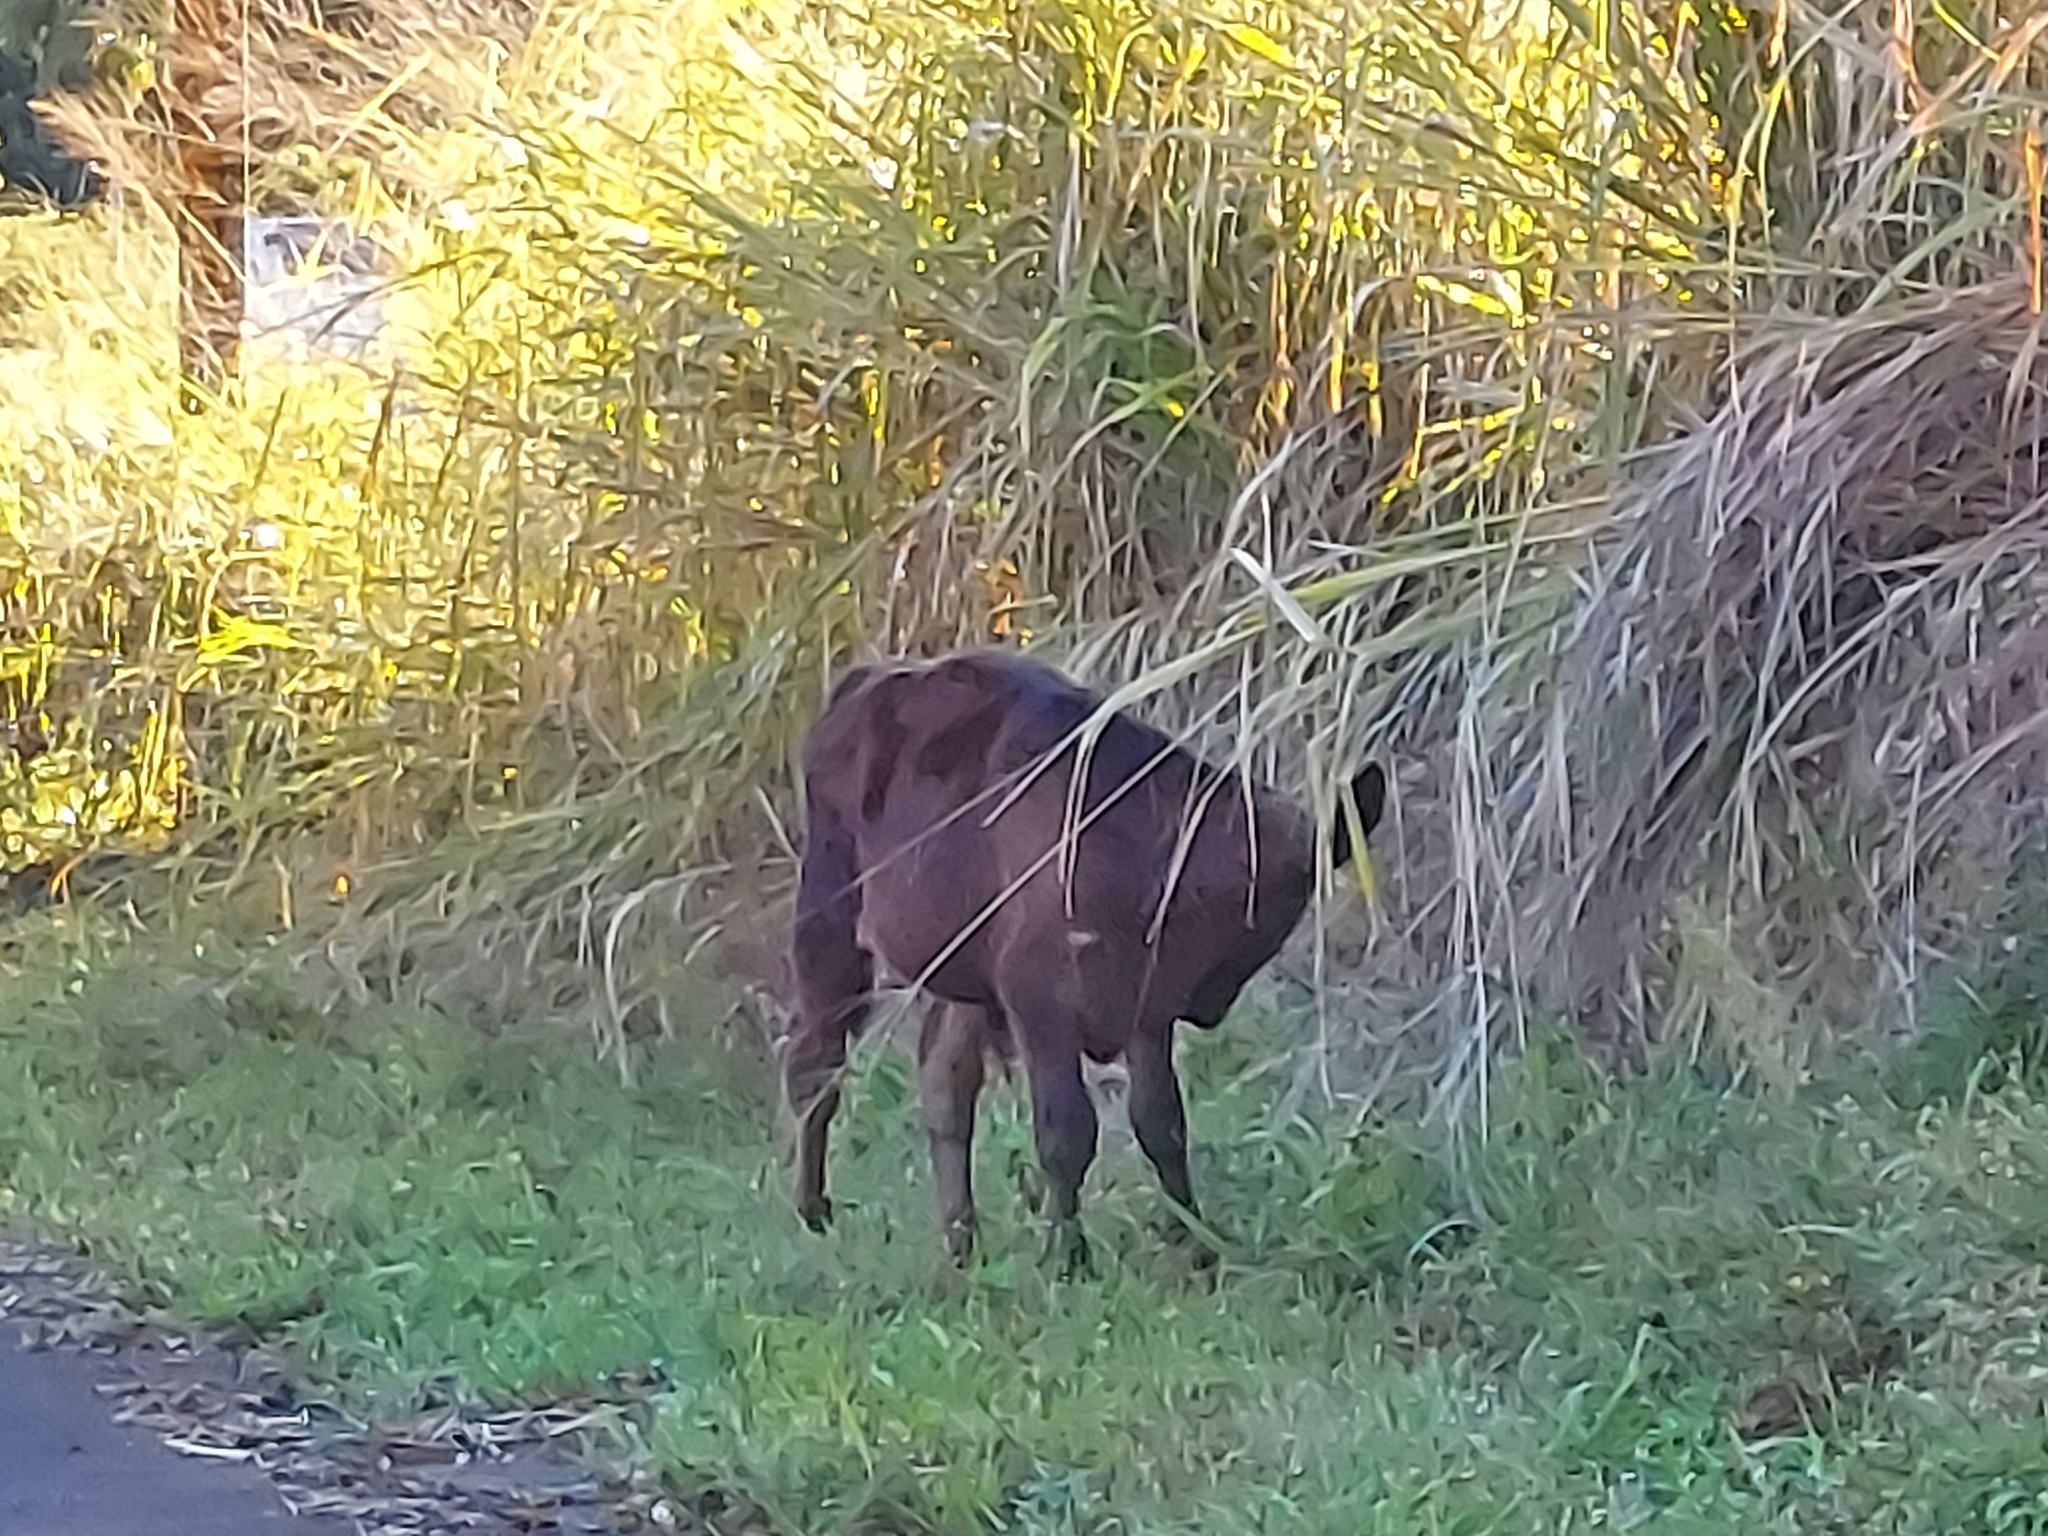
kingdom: Animalia
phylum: Chordata
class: Mammalia
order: Artiodactyla
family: Bovidae
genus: Bos
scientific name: Bos taurus
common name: Domesticated cattle
